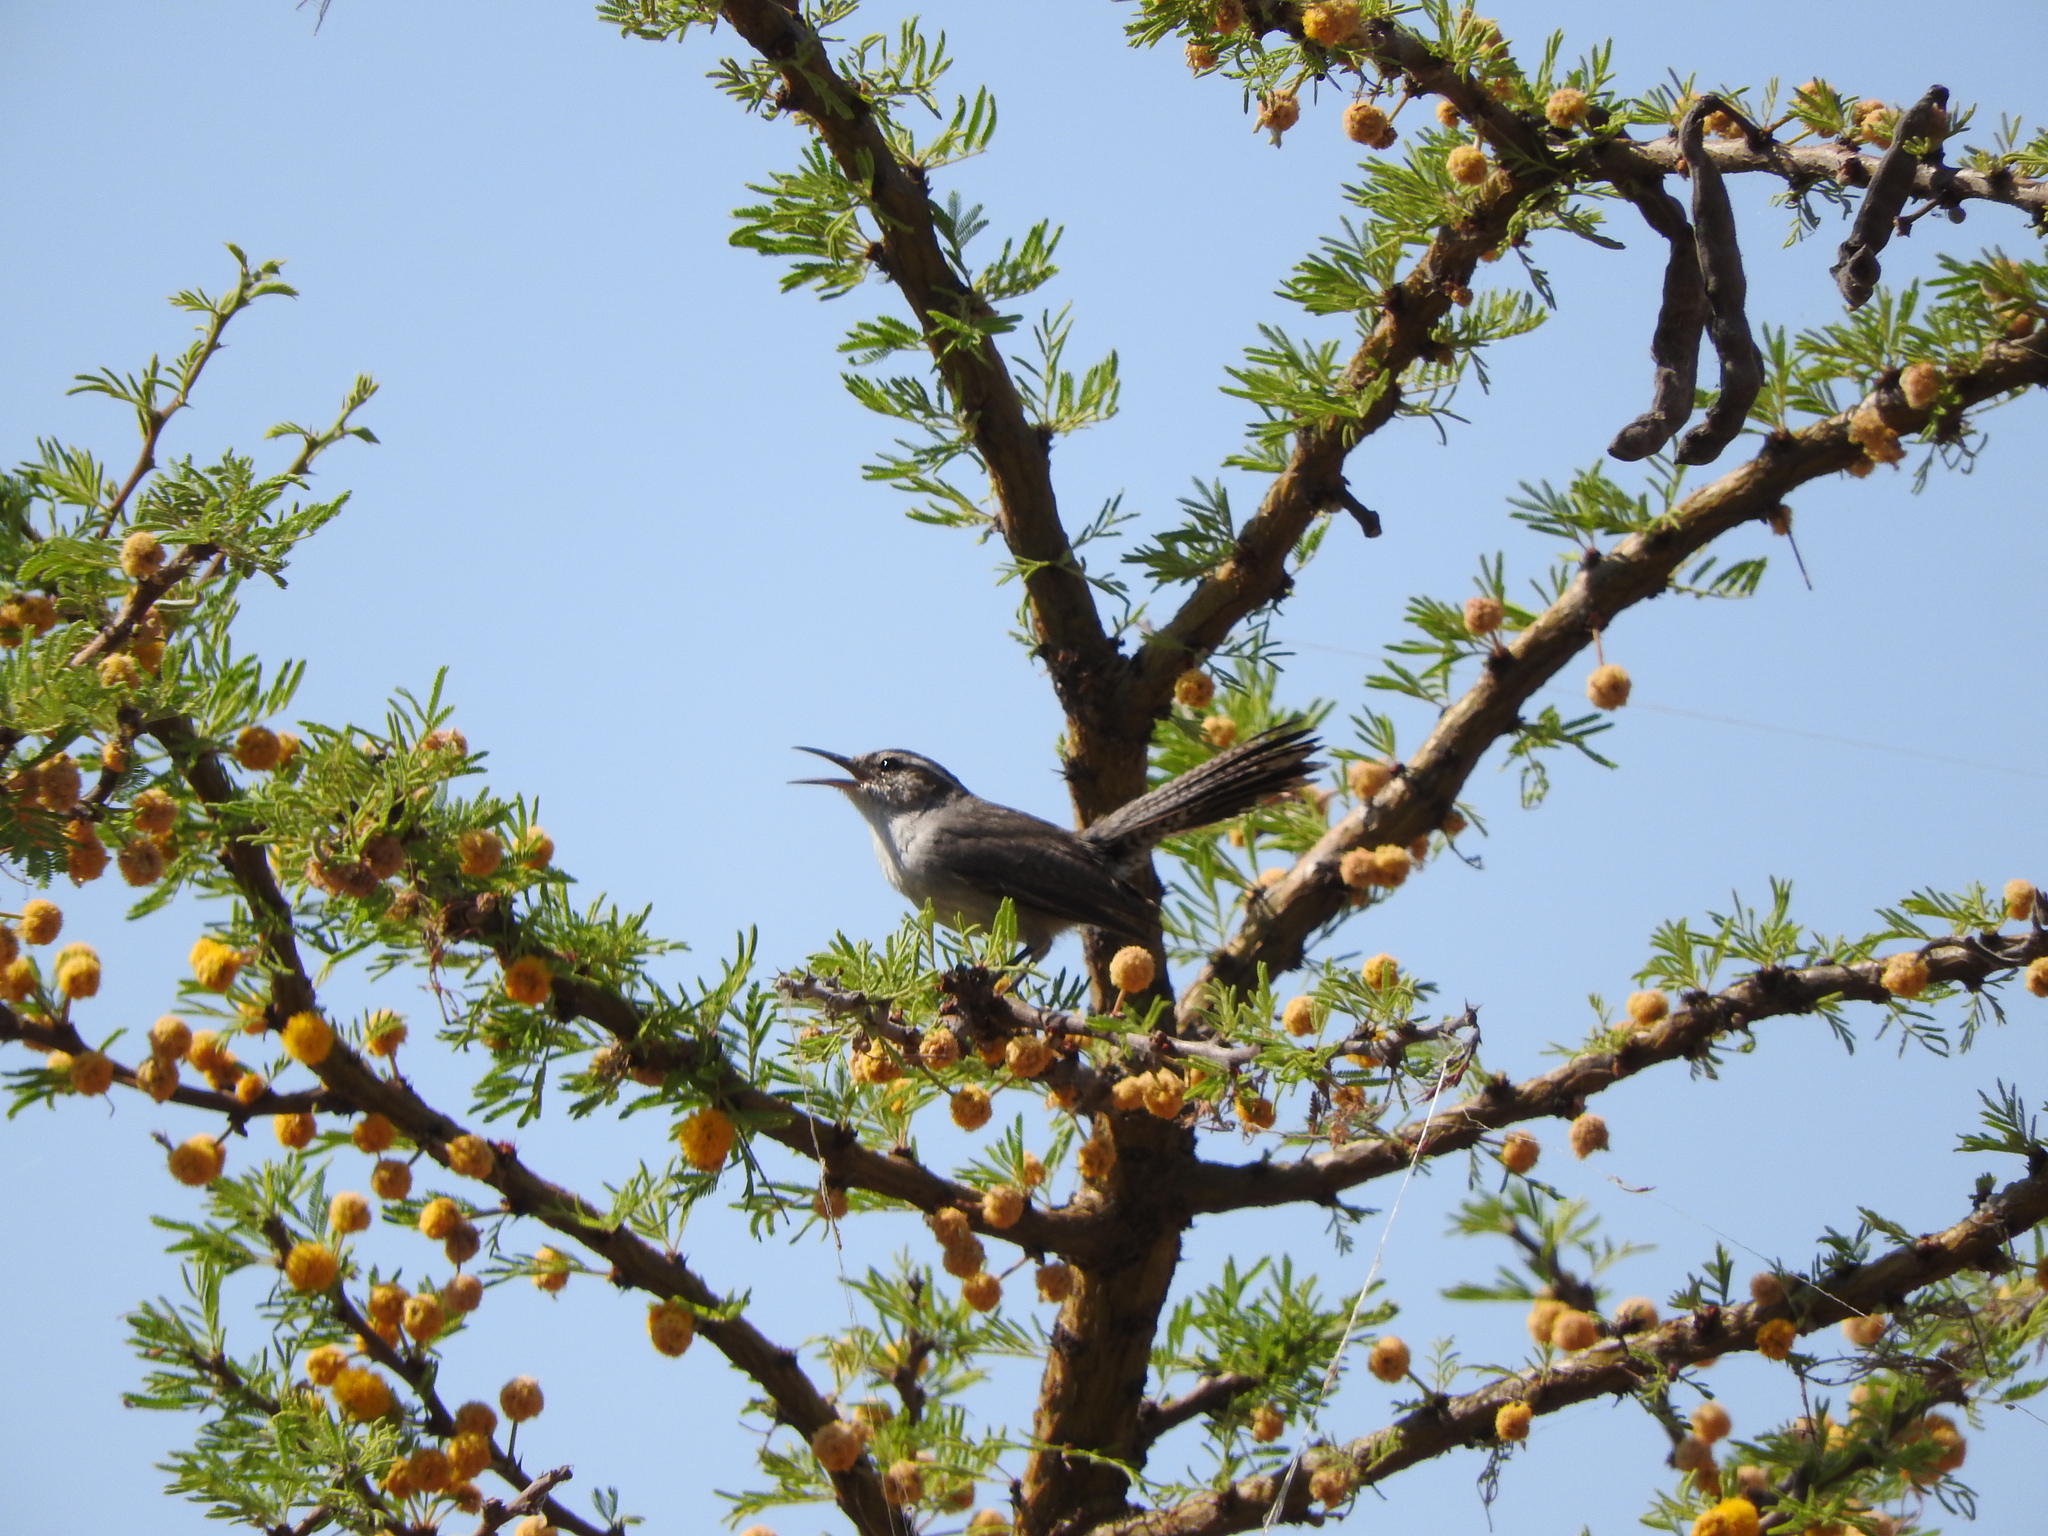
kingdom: Animalia
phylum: Chordata
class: Aves
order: Passeriformes
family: Troglodytidae
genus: Thryomanes
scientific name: Thryomanes bewickii
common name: Bewick's wren
